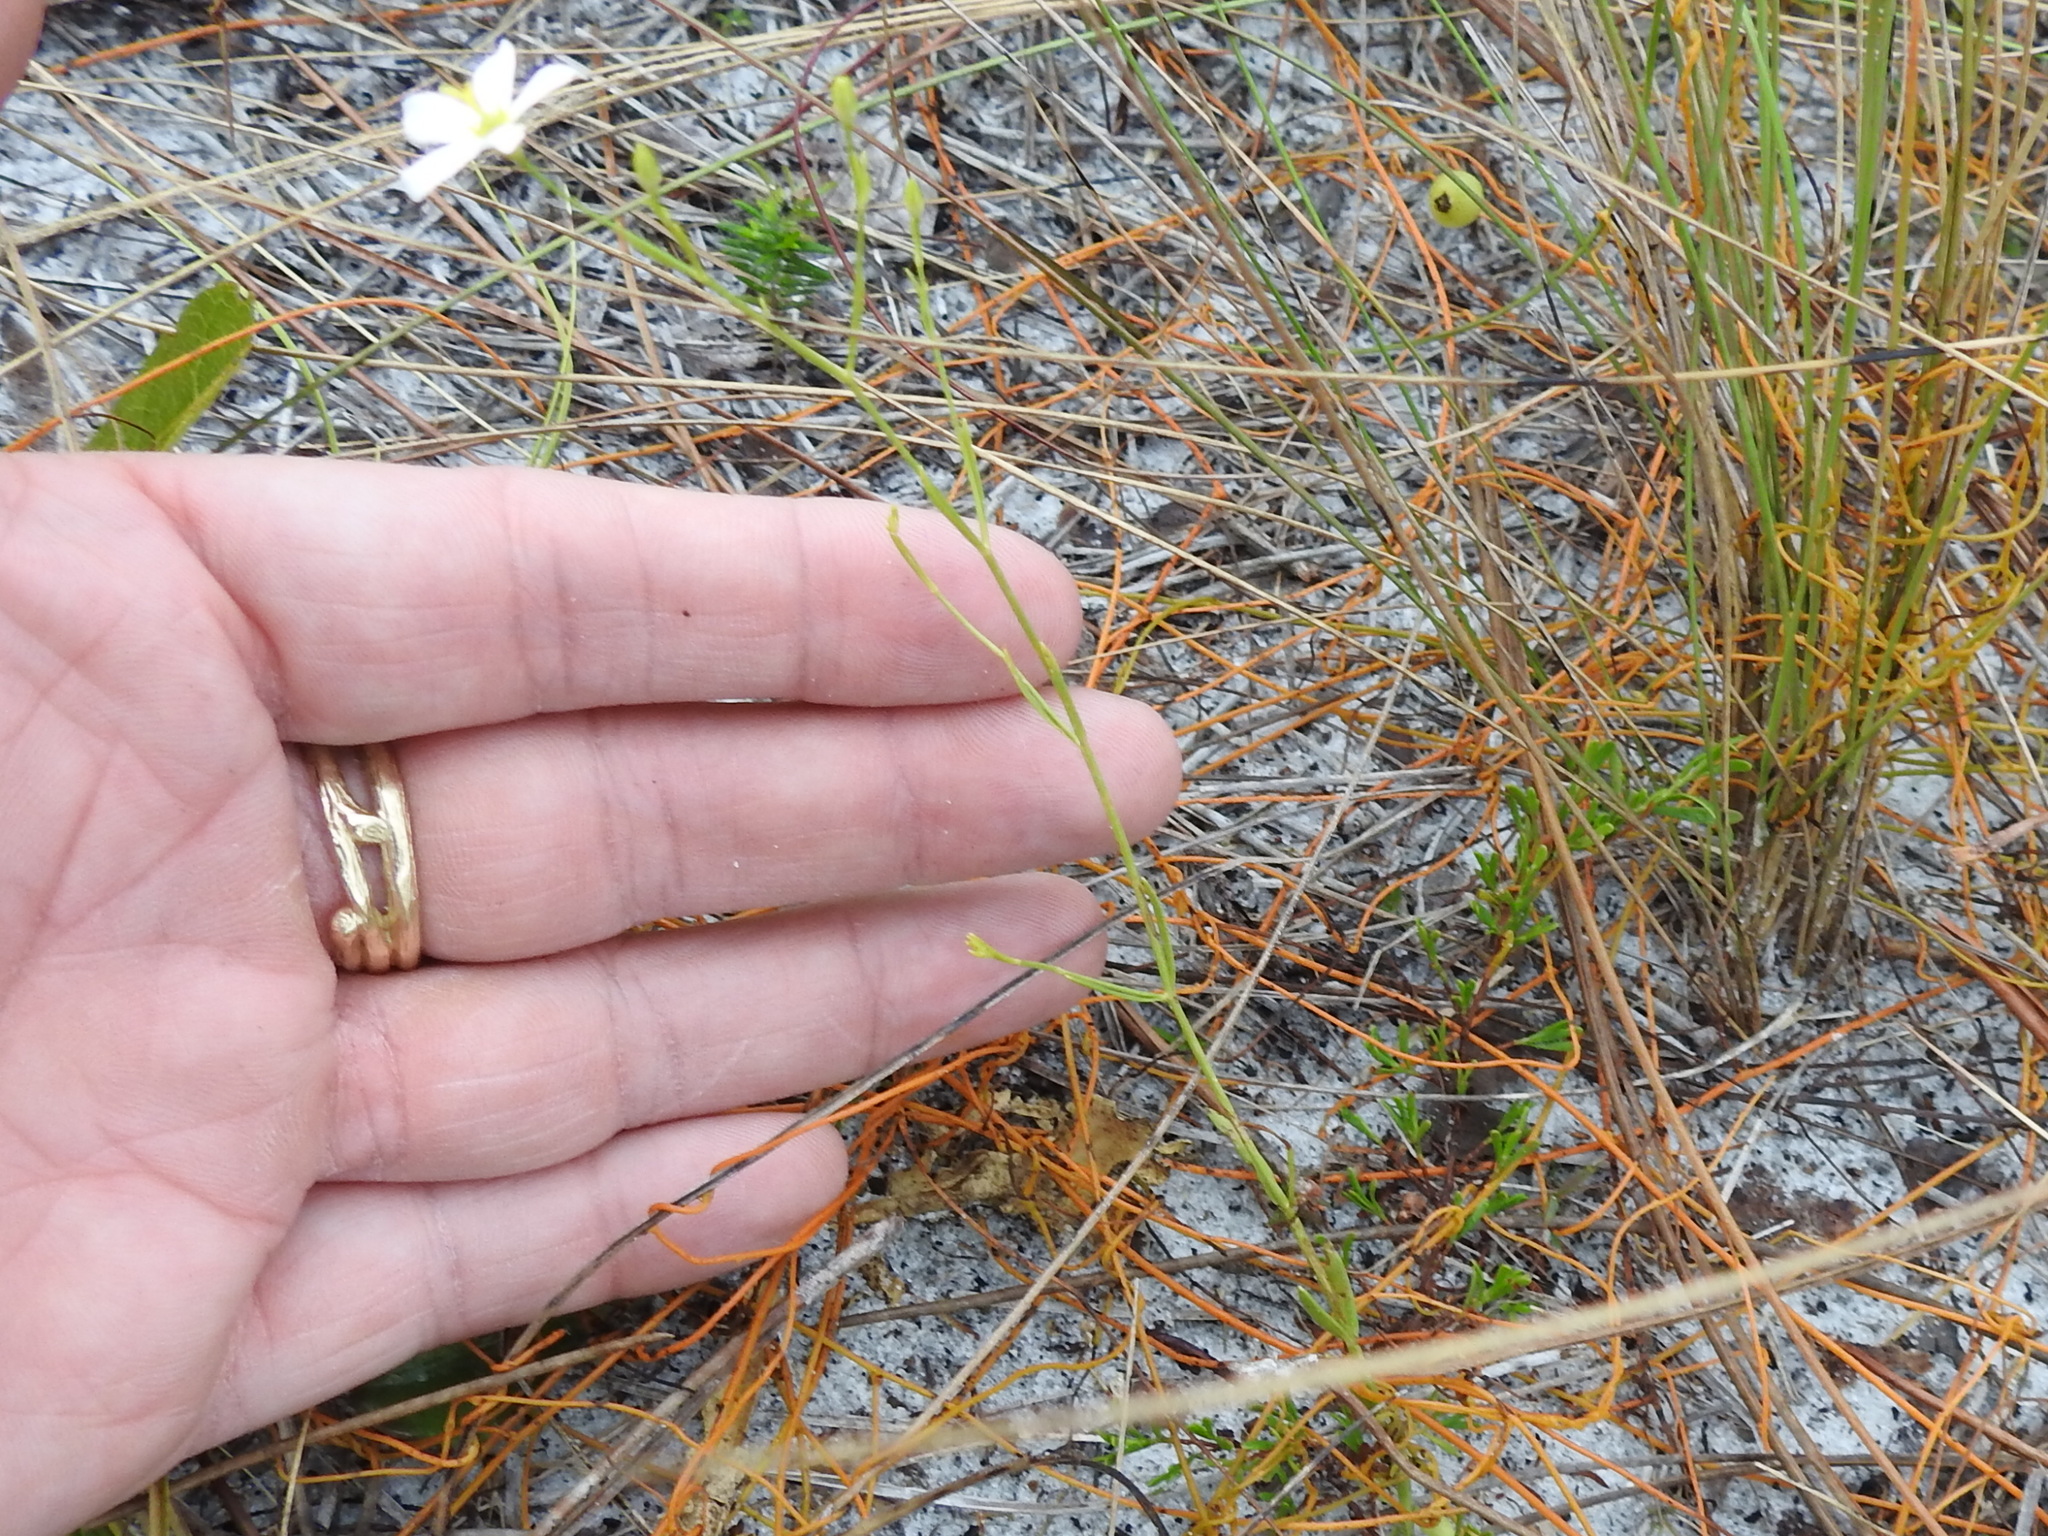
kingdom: Plantae
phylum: Tracheophyta
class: Magnoliopsida
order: Gentianales
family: Gentianaceae
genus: Sabatia
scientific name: Sabatia brevifolia
